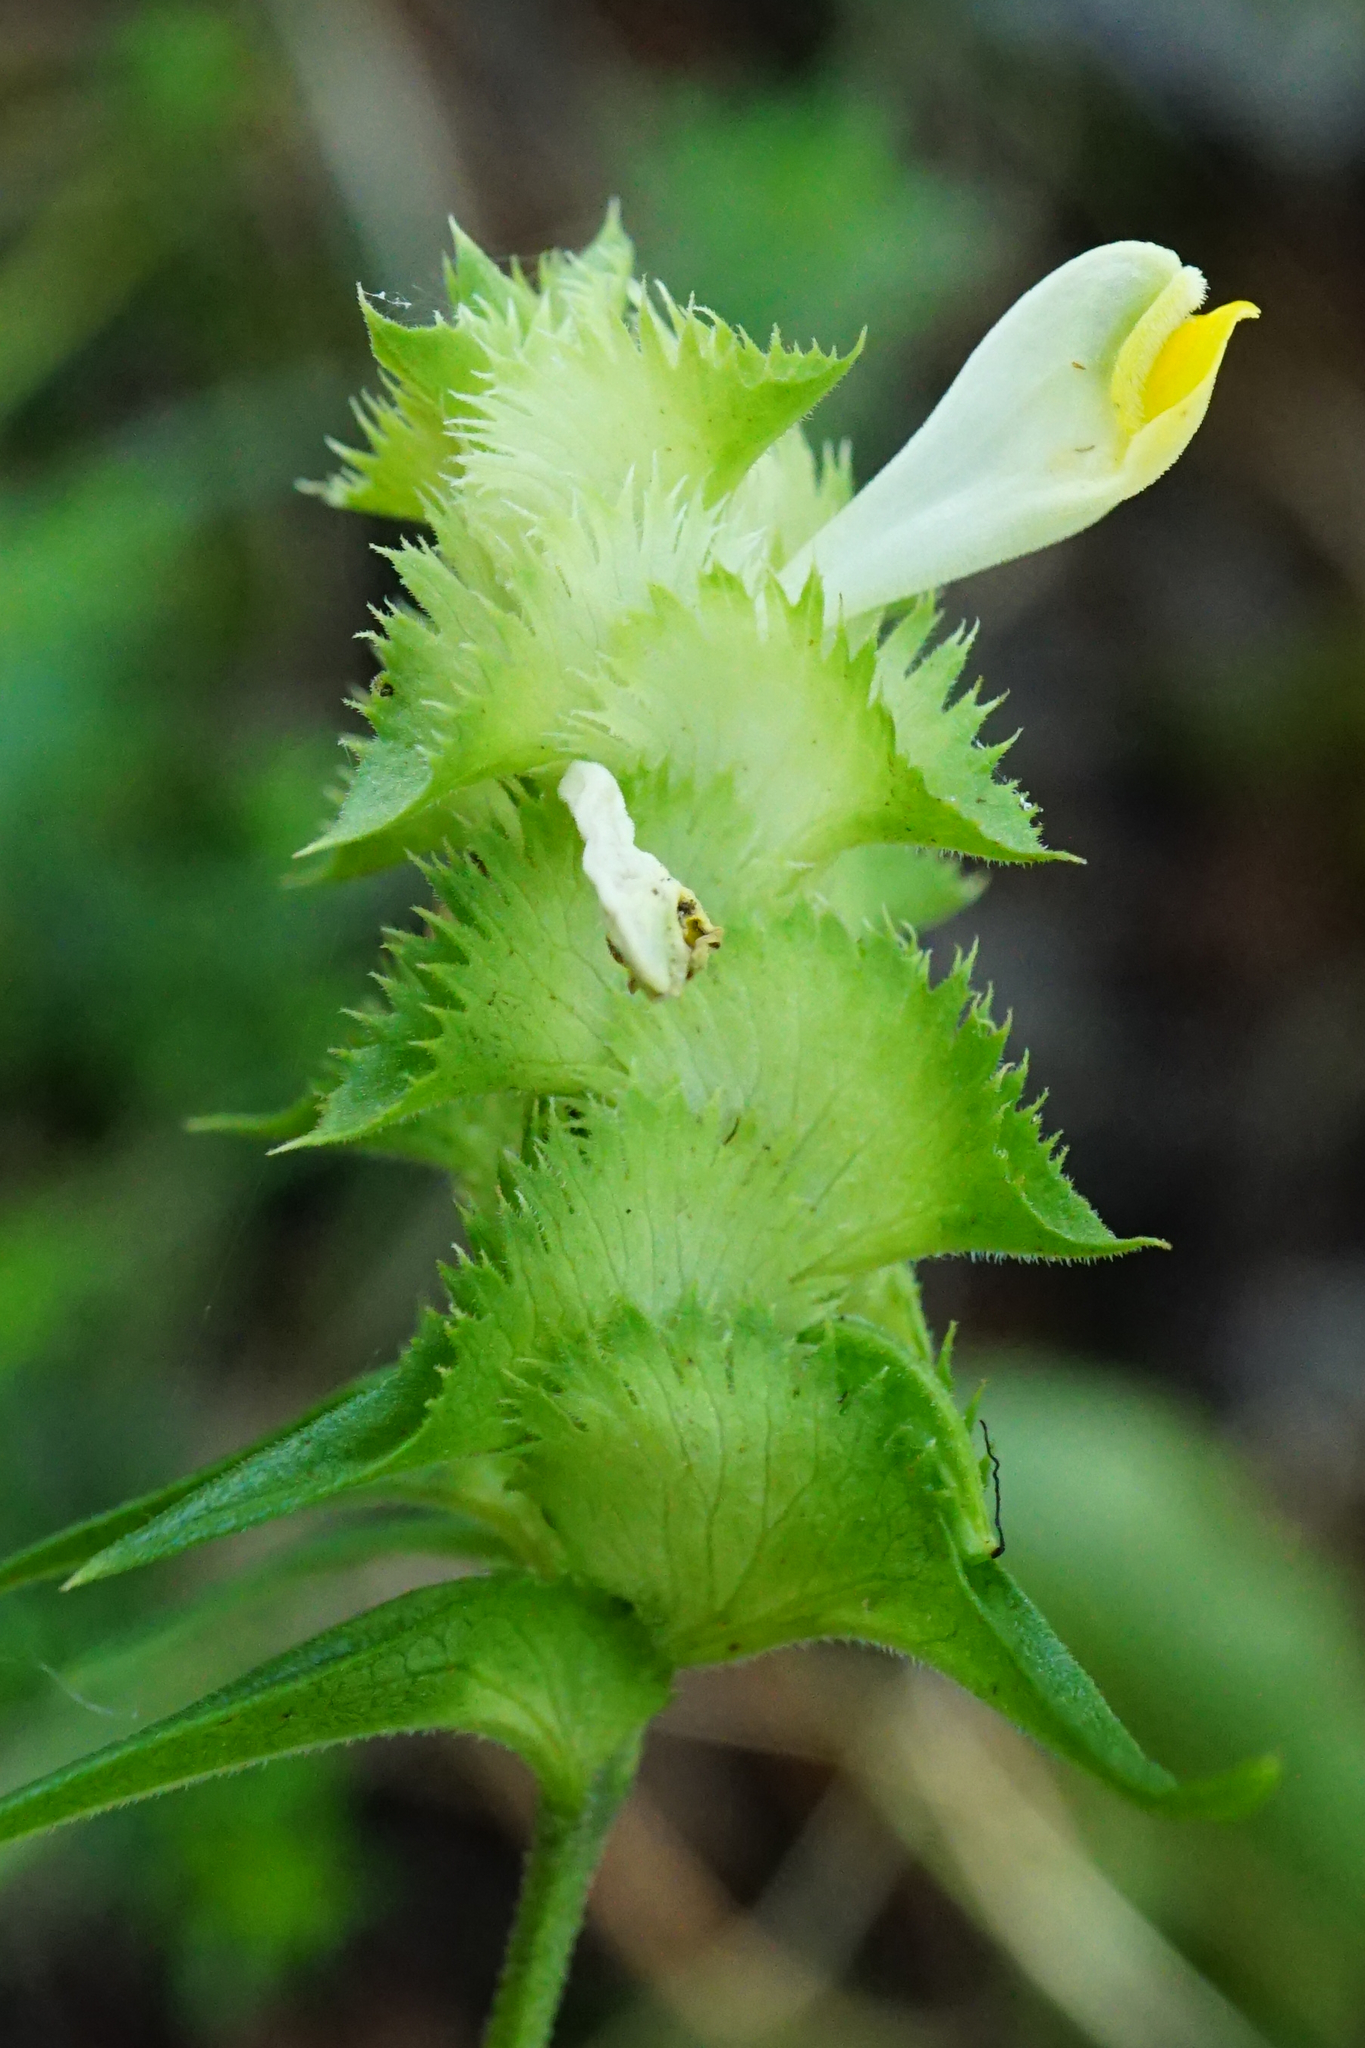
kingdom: Plantae
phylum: Tracheophyta
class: Magnoliopsida
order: Lamiales
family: Orobanchaceae
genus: Melampyrum
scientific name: Melampyrum cristatum
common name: Crested cow-wheat
